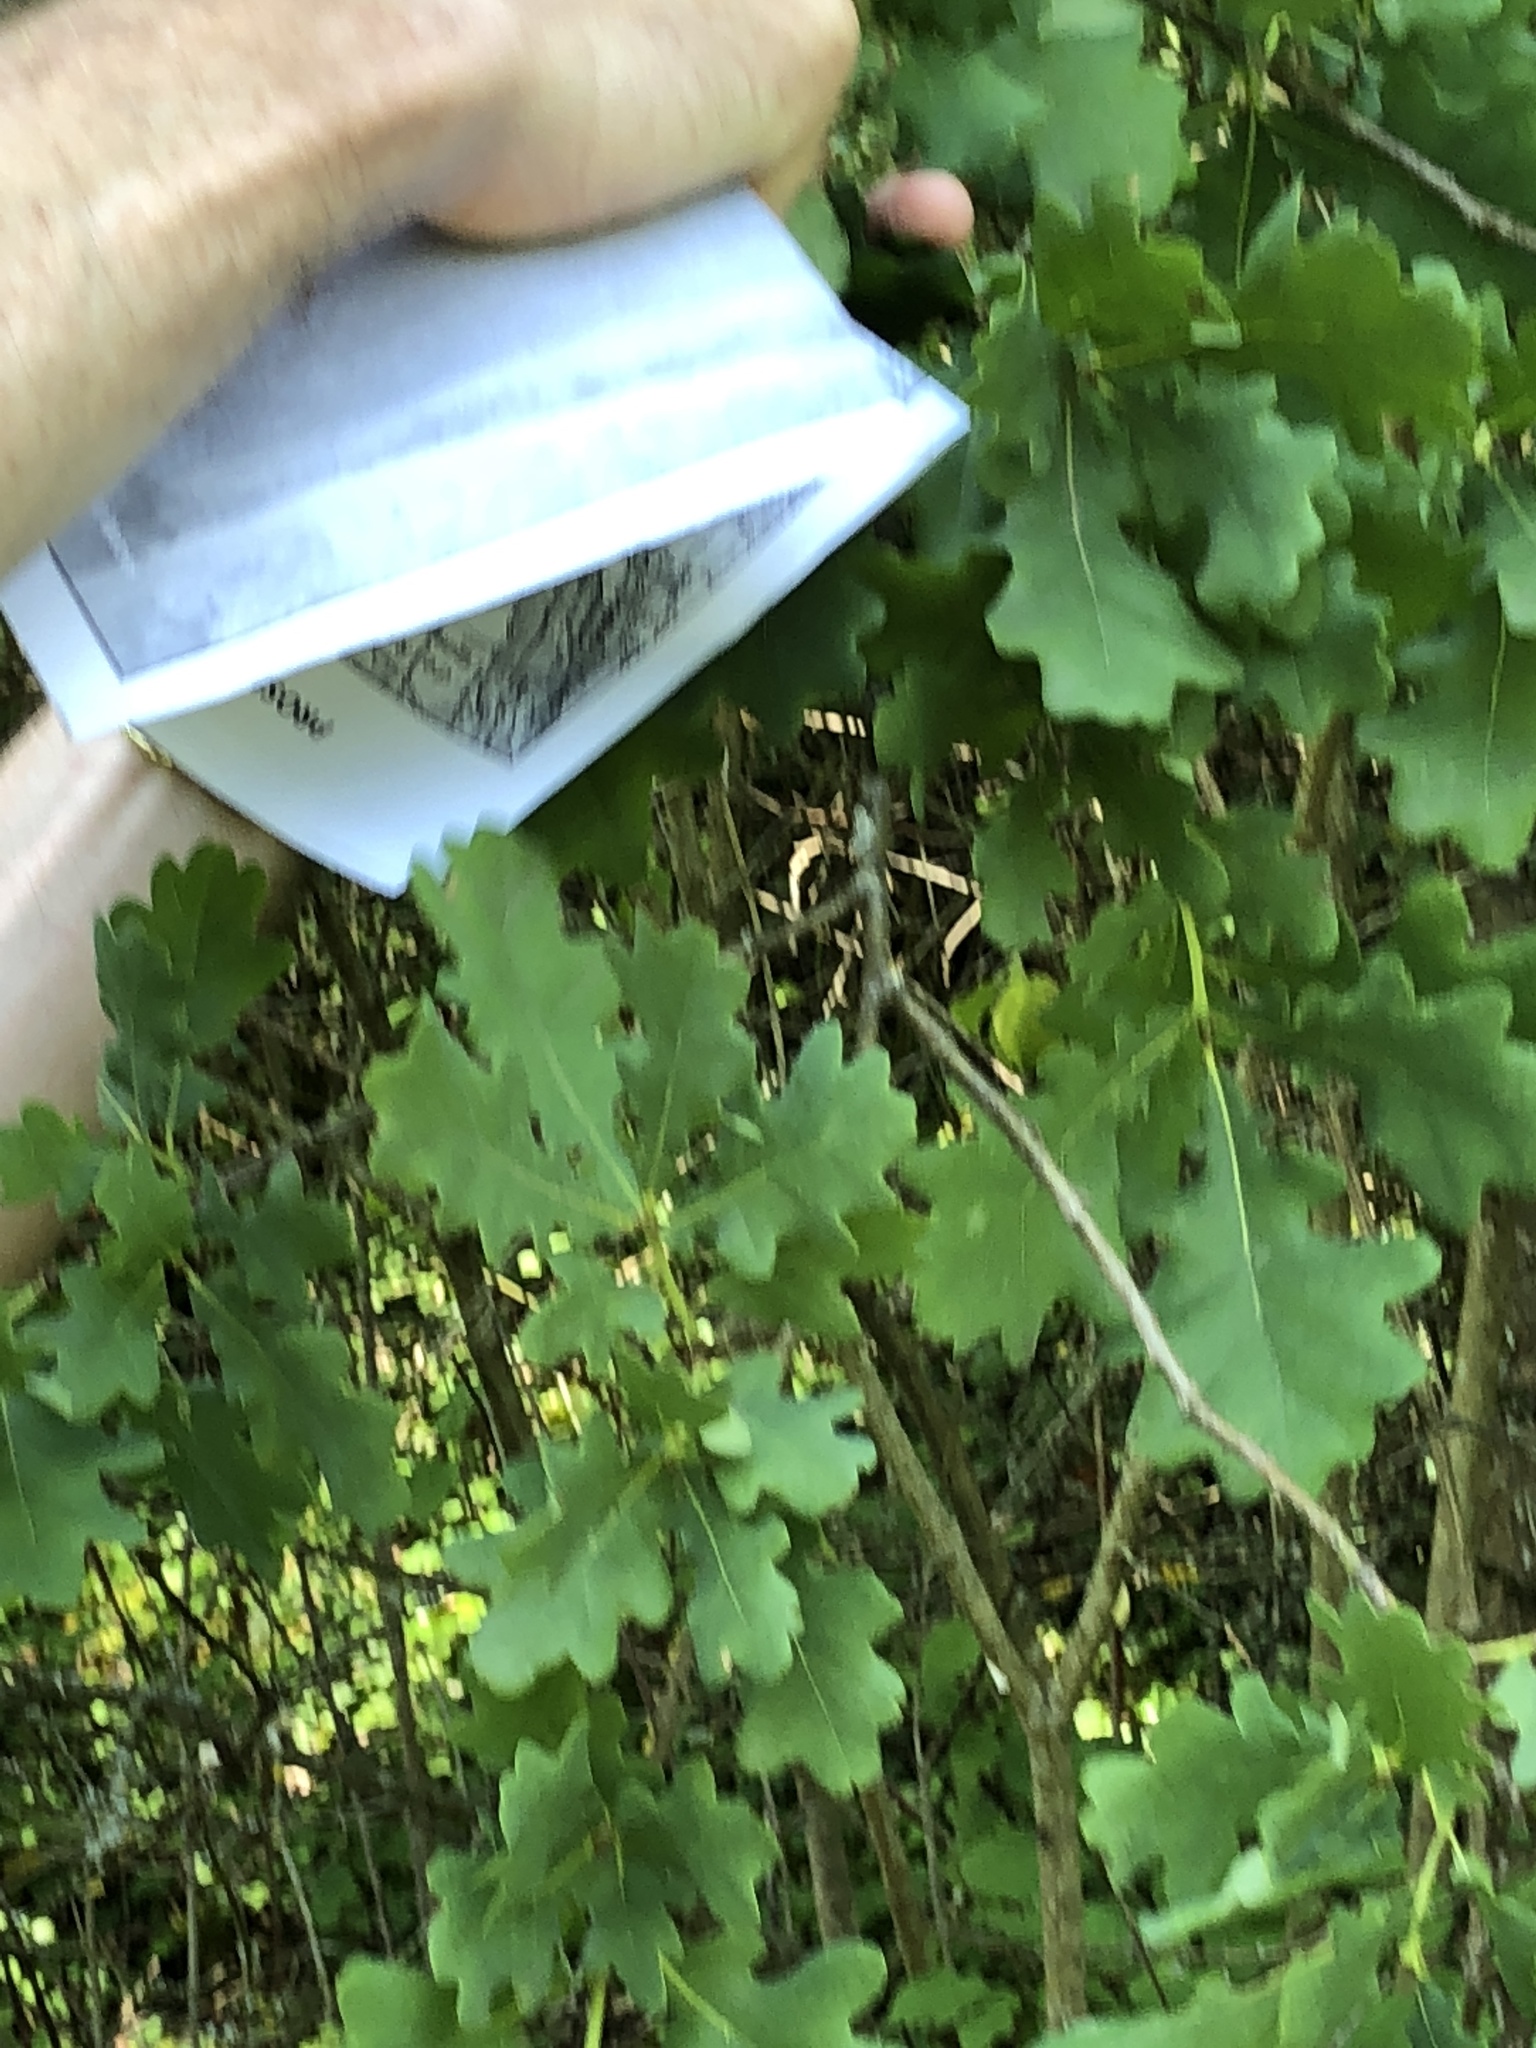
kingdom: Plantae
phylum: Tracheophyta
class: Magnoliopsida
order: Fagales
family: Fagaceae
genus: Quercus
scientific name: Quercus robur
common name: Pedunculate oak
